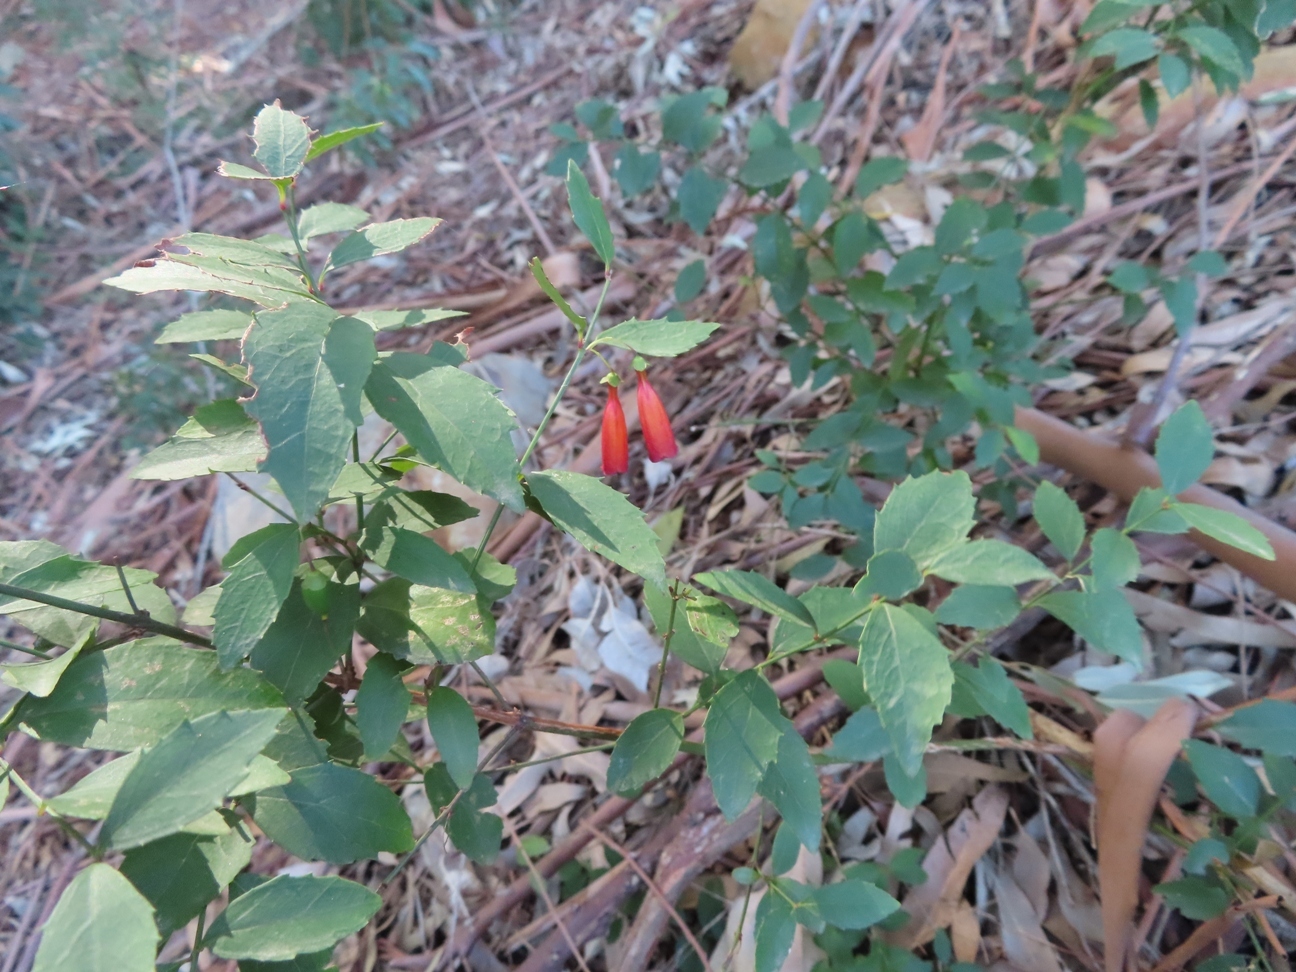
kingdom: Plantae
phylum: Tracheophyta
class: Magnoliopsida
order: Lamiales
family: Stilbaceae
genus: Halleria
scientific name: Halleria lucida
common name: Tree fuschia
